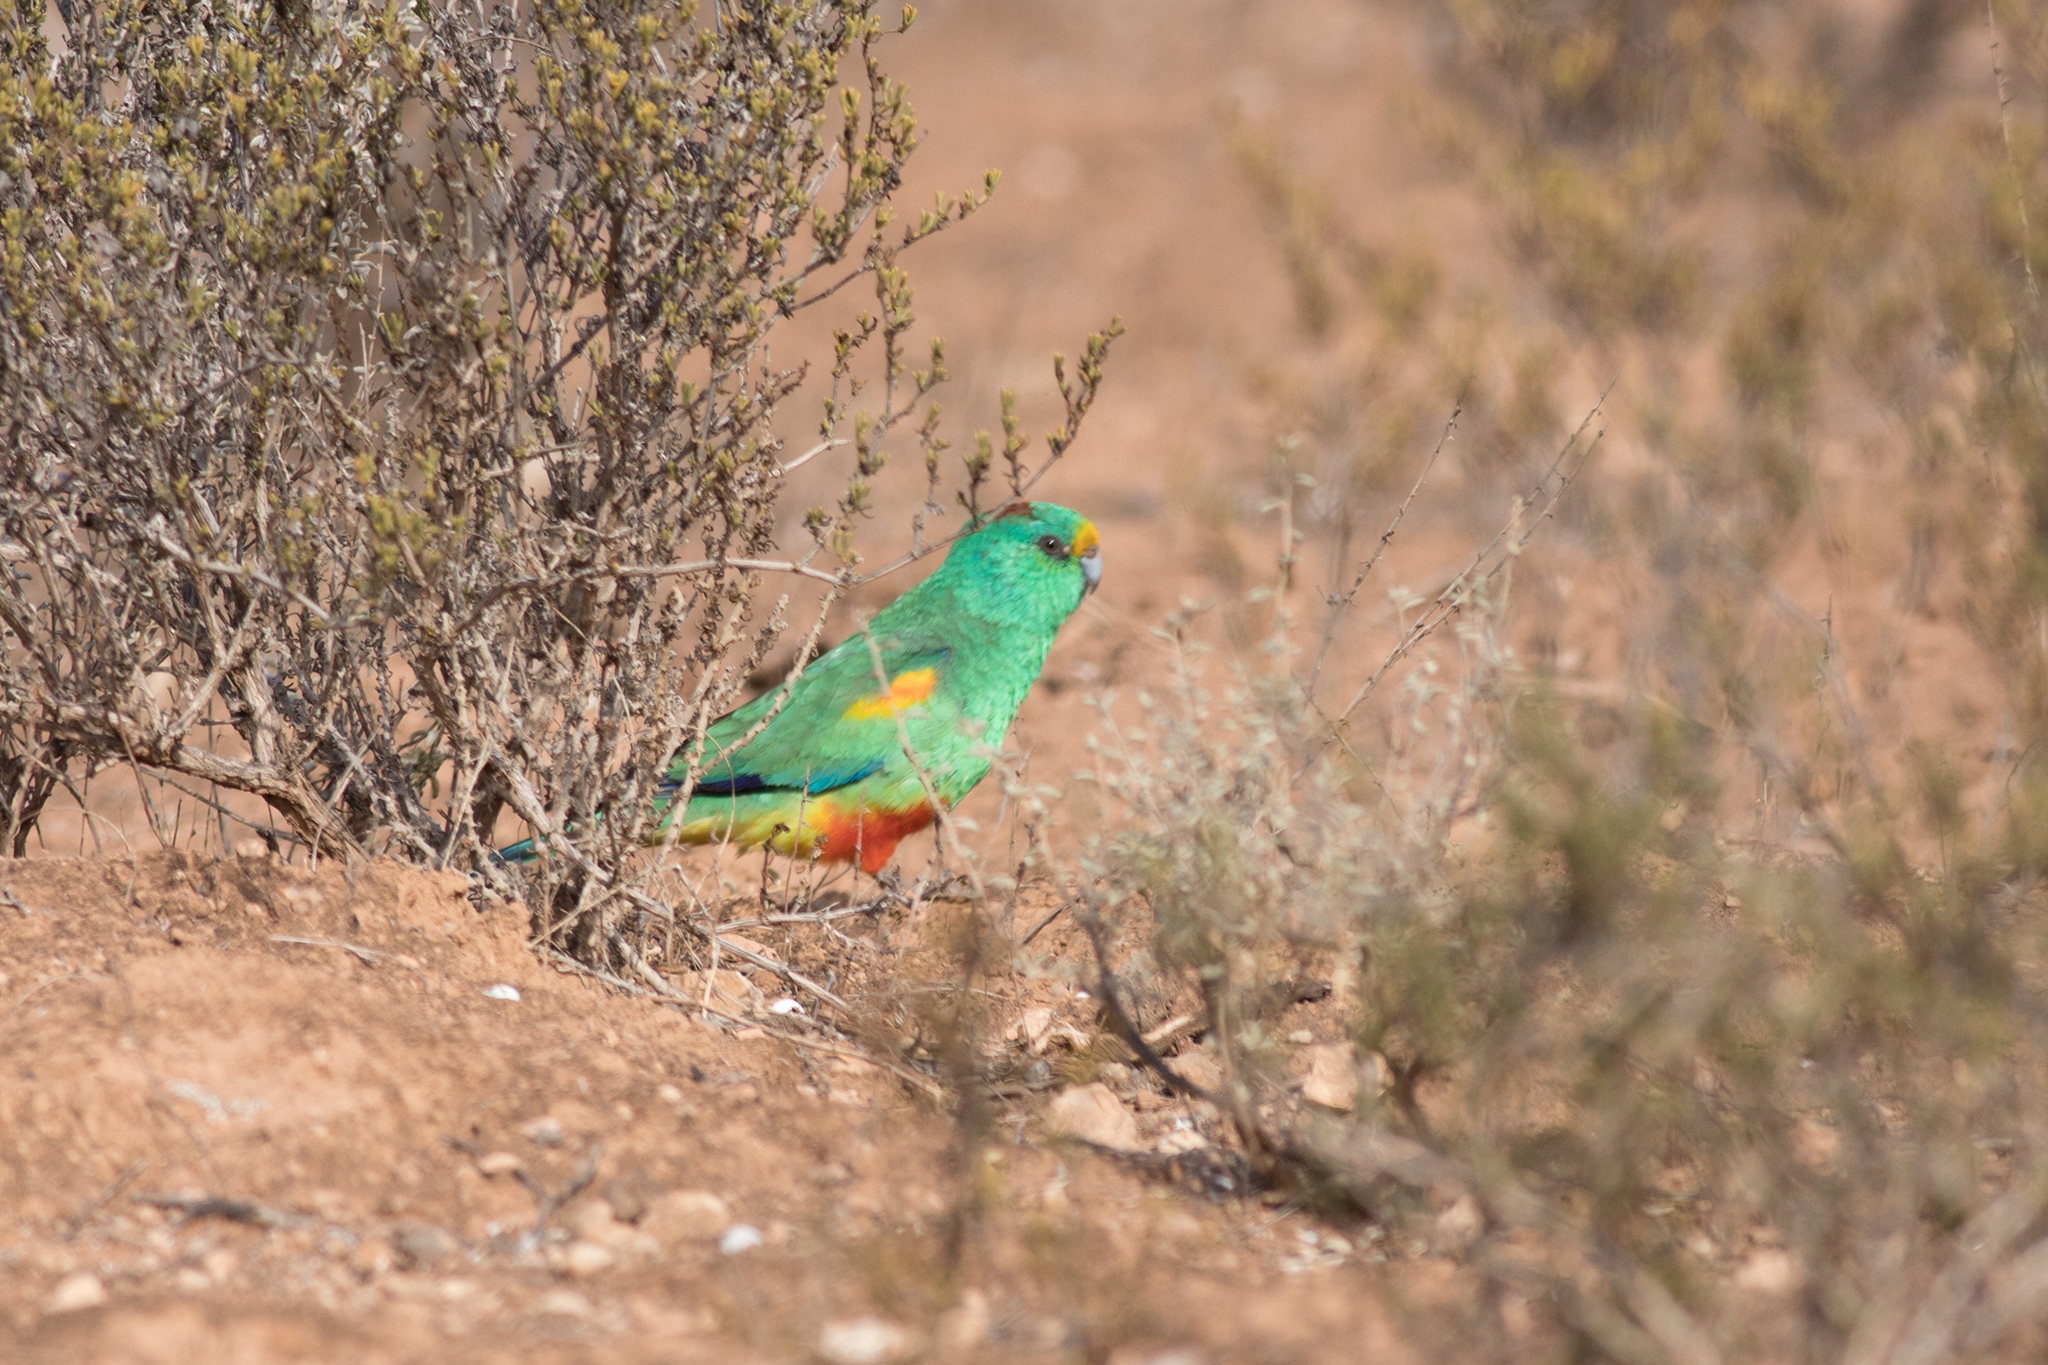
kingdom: Animalia
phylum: Chordata
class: Aves
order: Psittaciformes
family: Psittaculidae
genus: Psephotellus
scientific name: Psephotellus varius
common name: Mulga parrot
